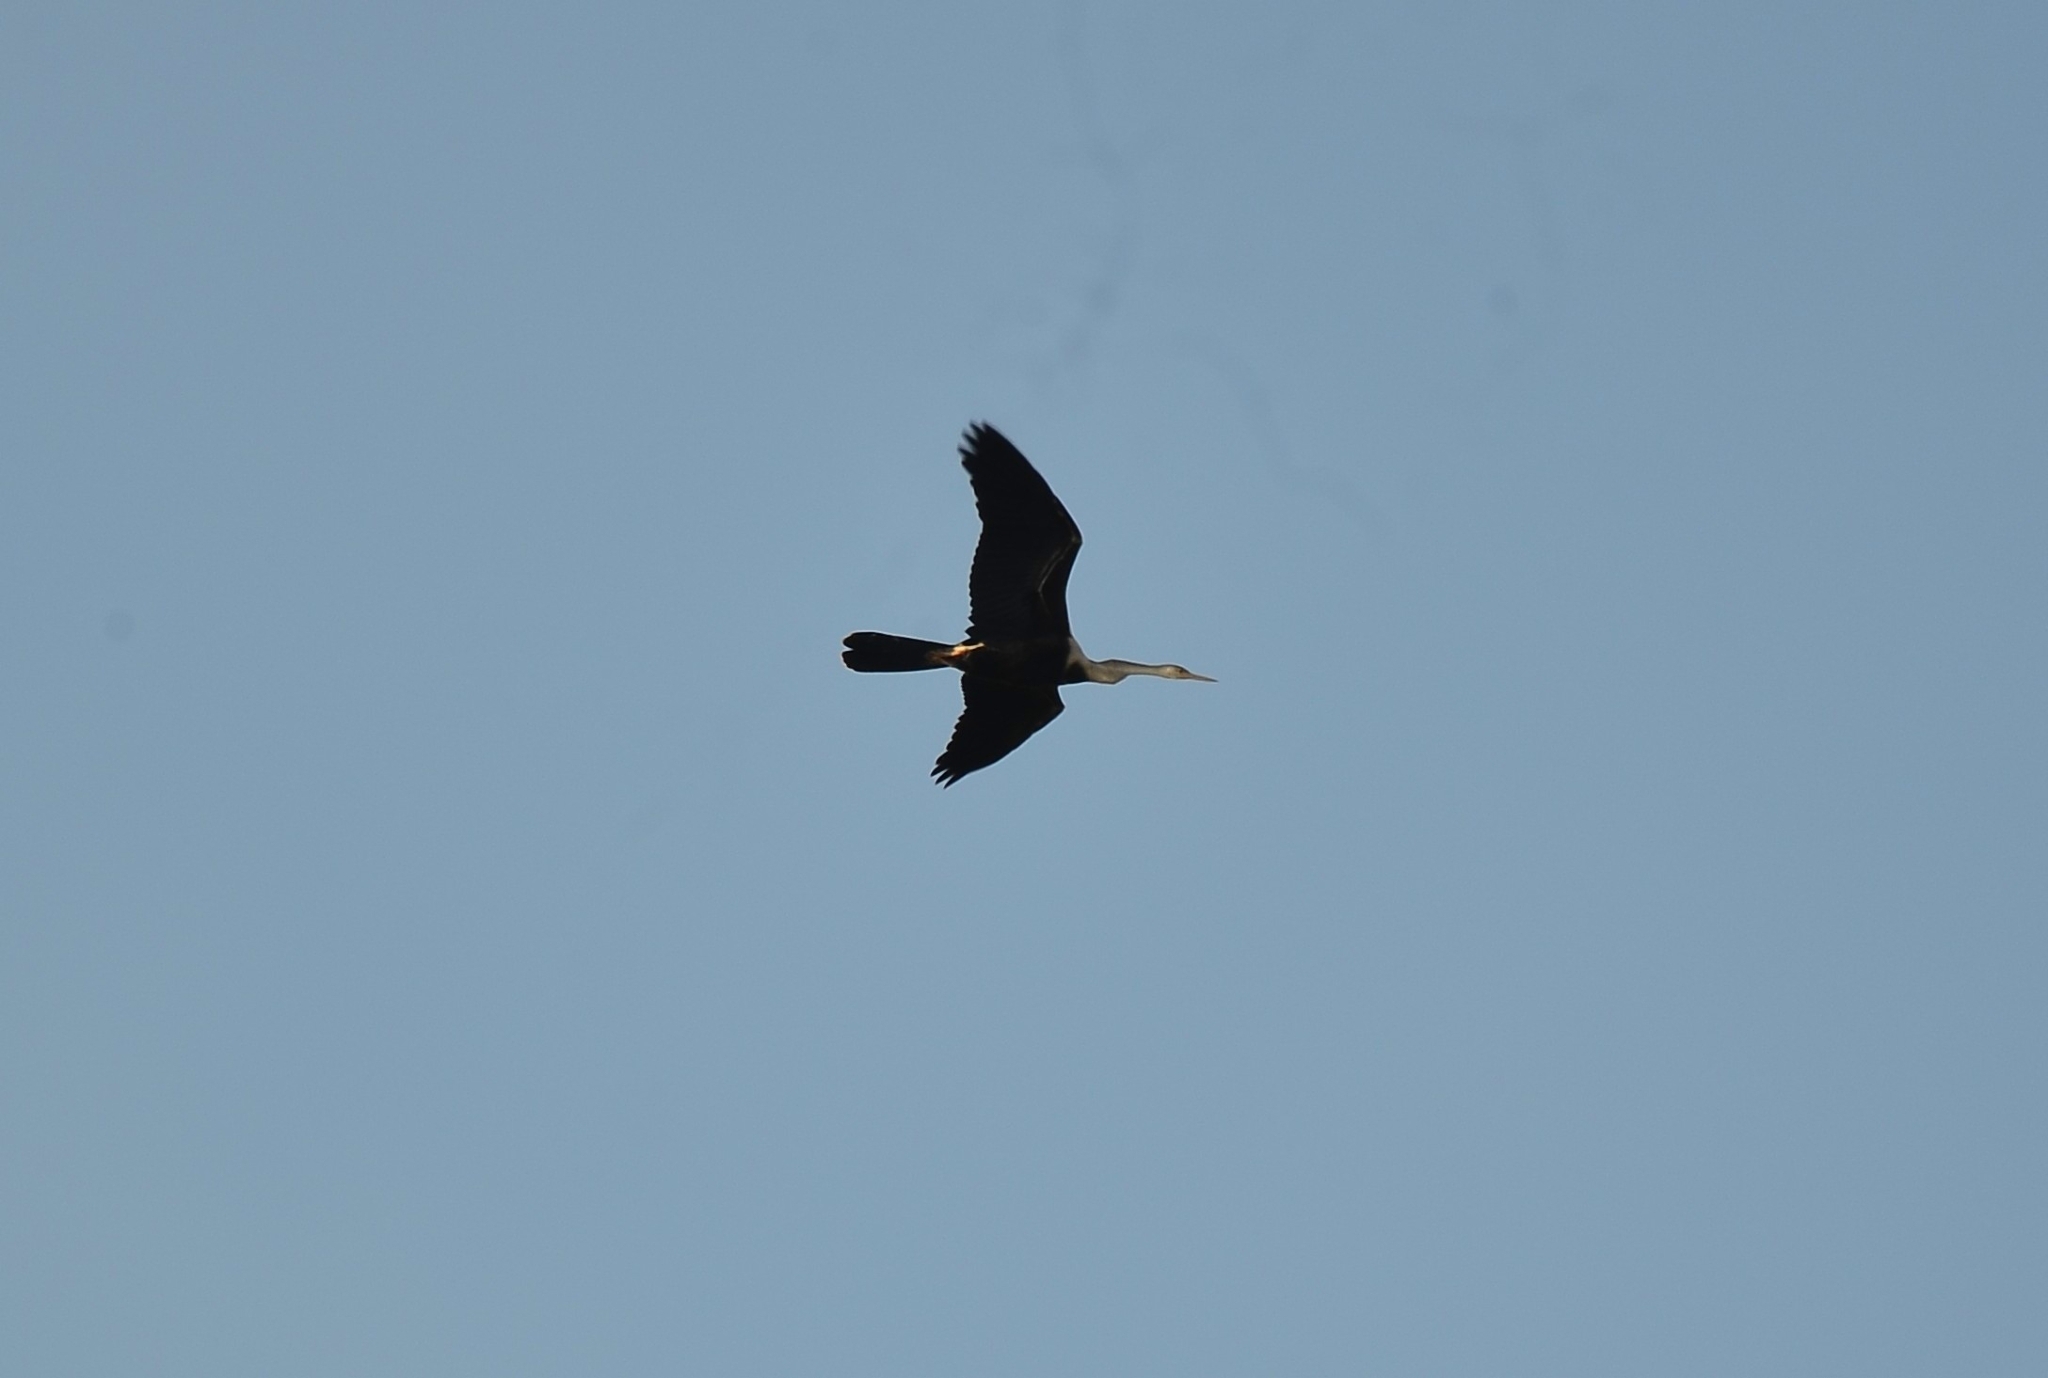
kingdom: Animalia
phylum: Chordata
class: Aves
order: Suliformes
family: Anhingidae
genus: Anhinga
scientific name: Anhinga melanogaster
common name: Oriental darter
